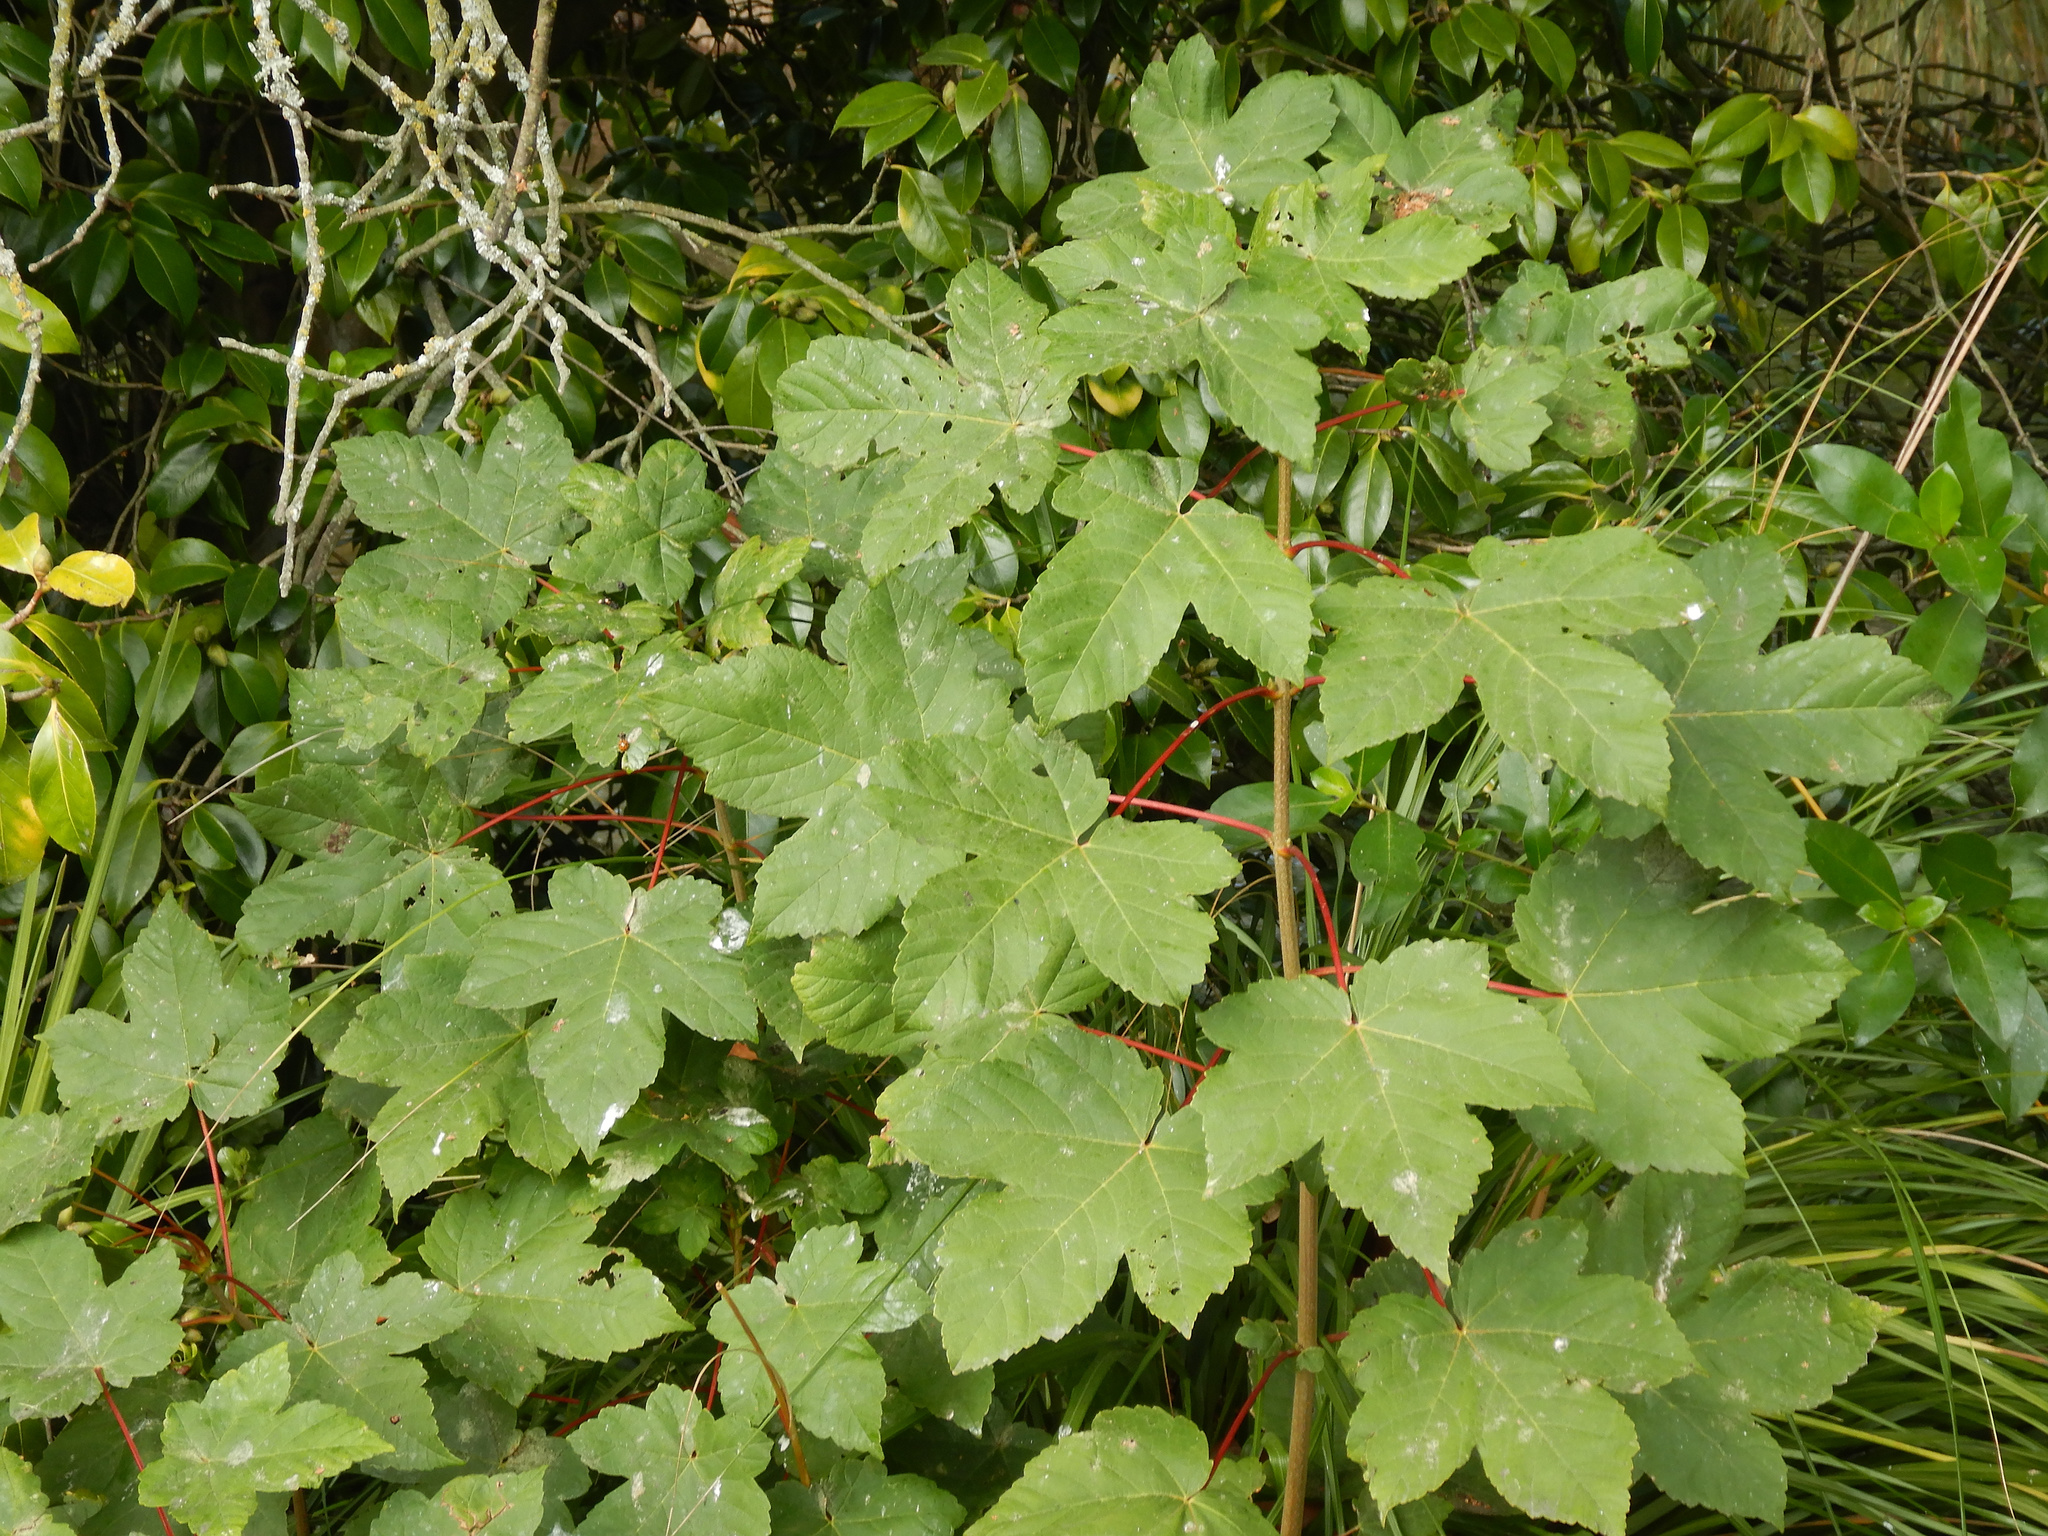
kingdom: Plantae
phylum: Tracheophyta
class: Magnoliopsida
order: Sapindales
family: Sapindaceae
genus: Acer
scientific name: Acer pseudoplatanus
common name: Sycamore
